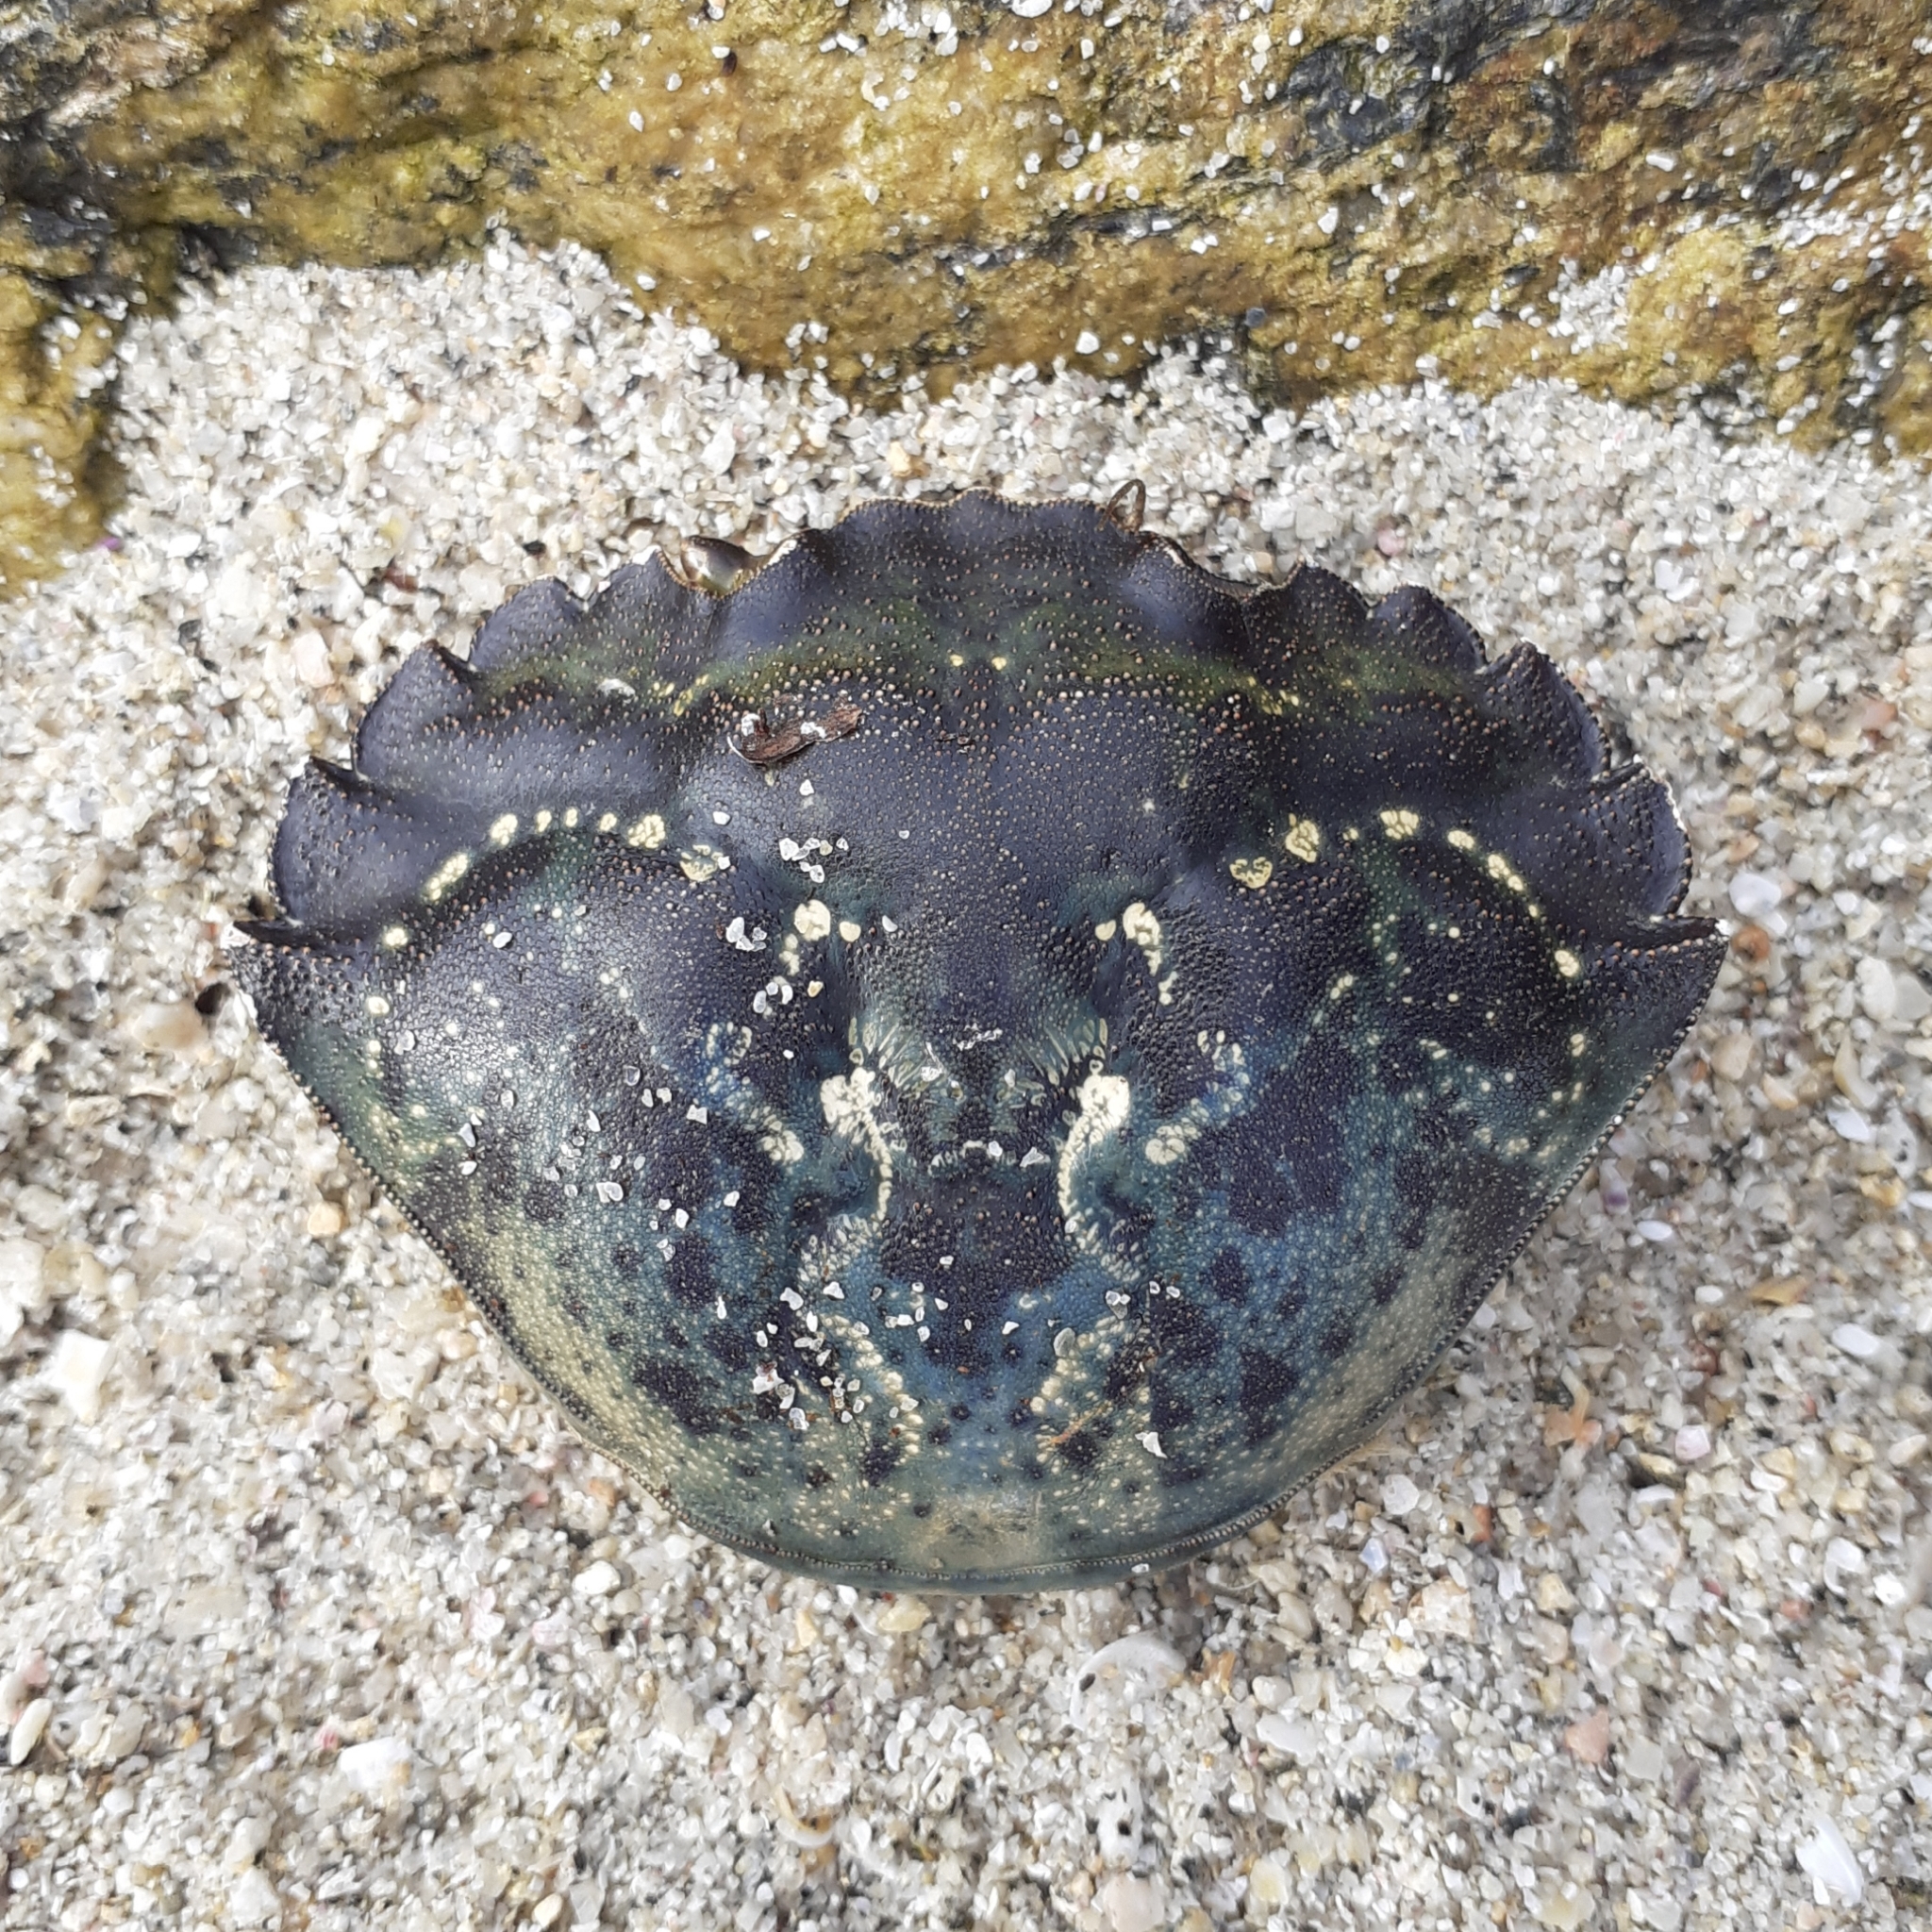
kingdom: Animalia
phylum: Arthropoda
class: Malacostraca
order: Decapoda
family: Carcinidae
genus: Carcinus
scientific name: Carcinus maenas
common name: European green crab
